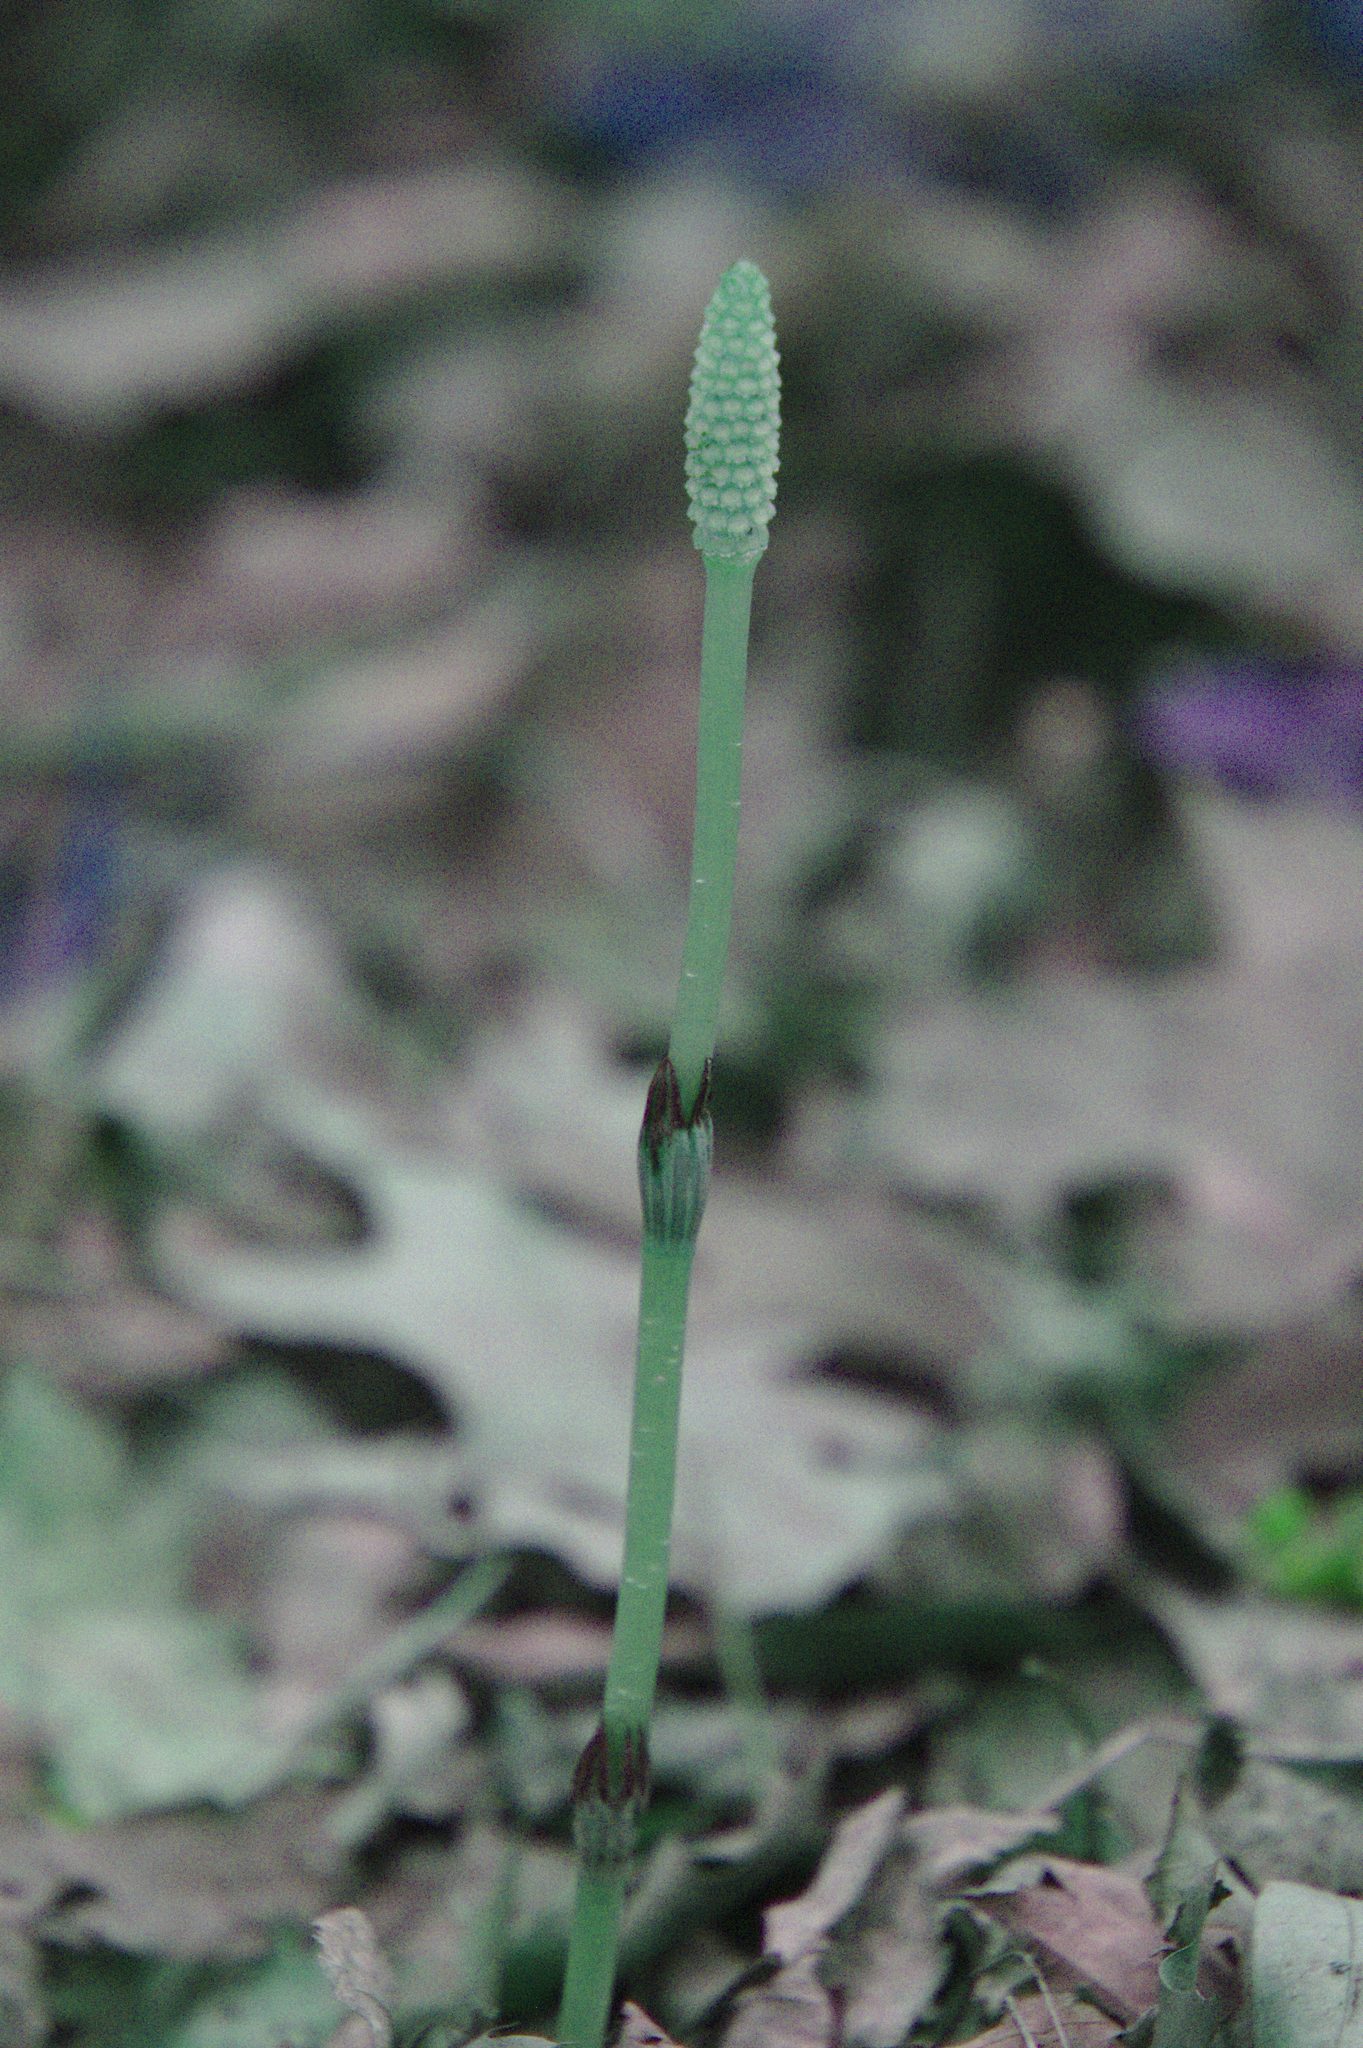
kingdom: Plantae
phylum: Tracheophyta
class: Polypodiopsida
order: Equisetales
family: Equisetaceae
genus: Equisetum
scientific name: Equisetum arvense
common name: Field horsetail
